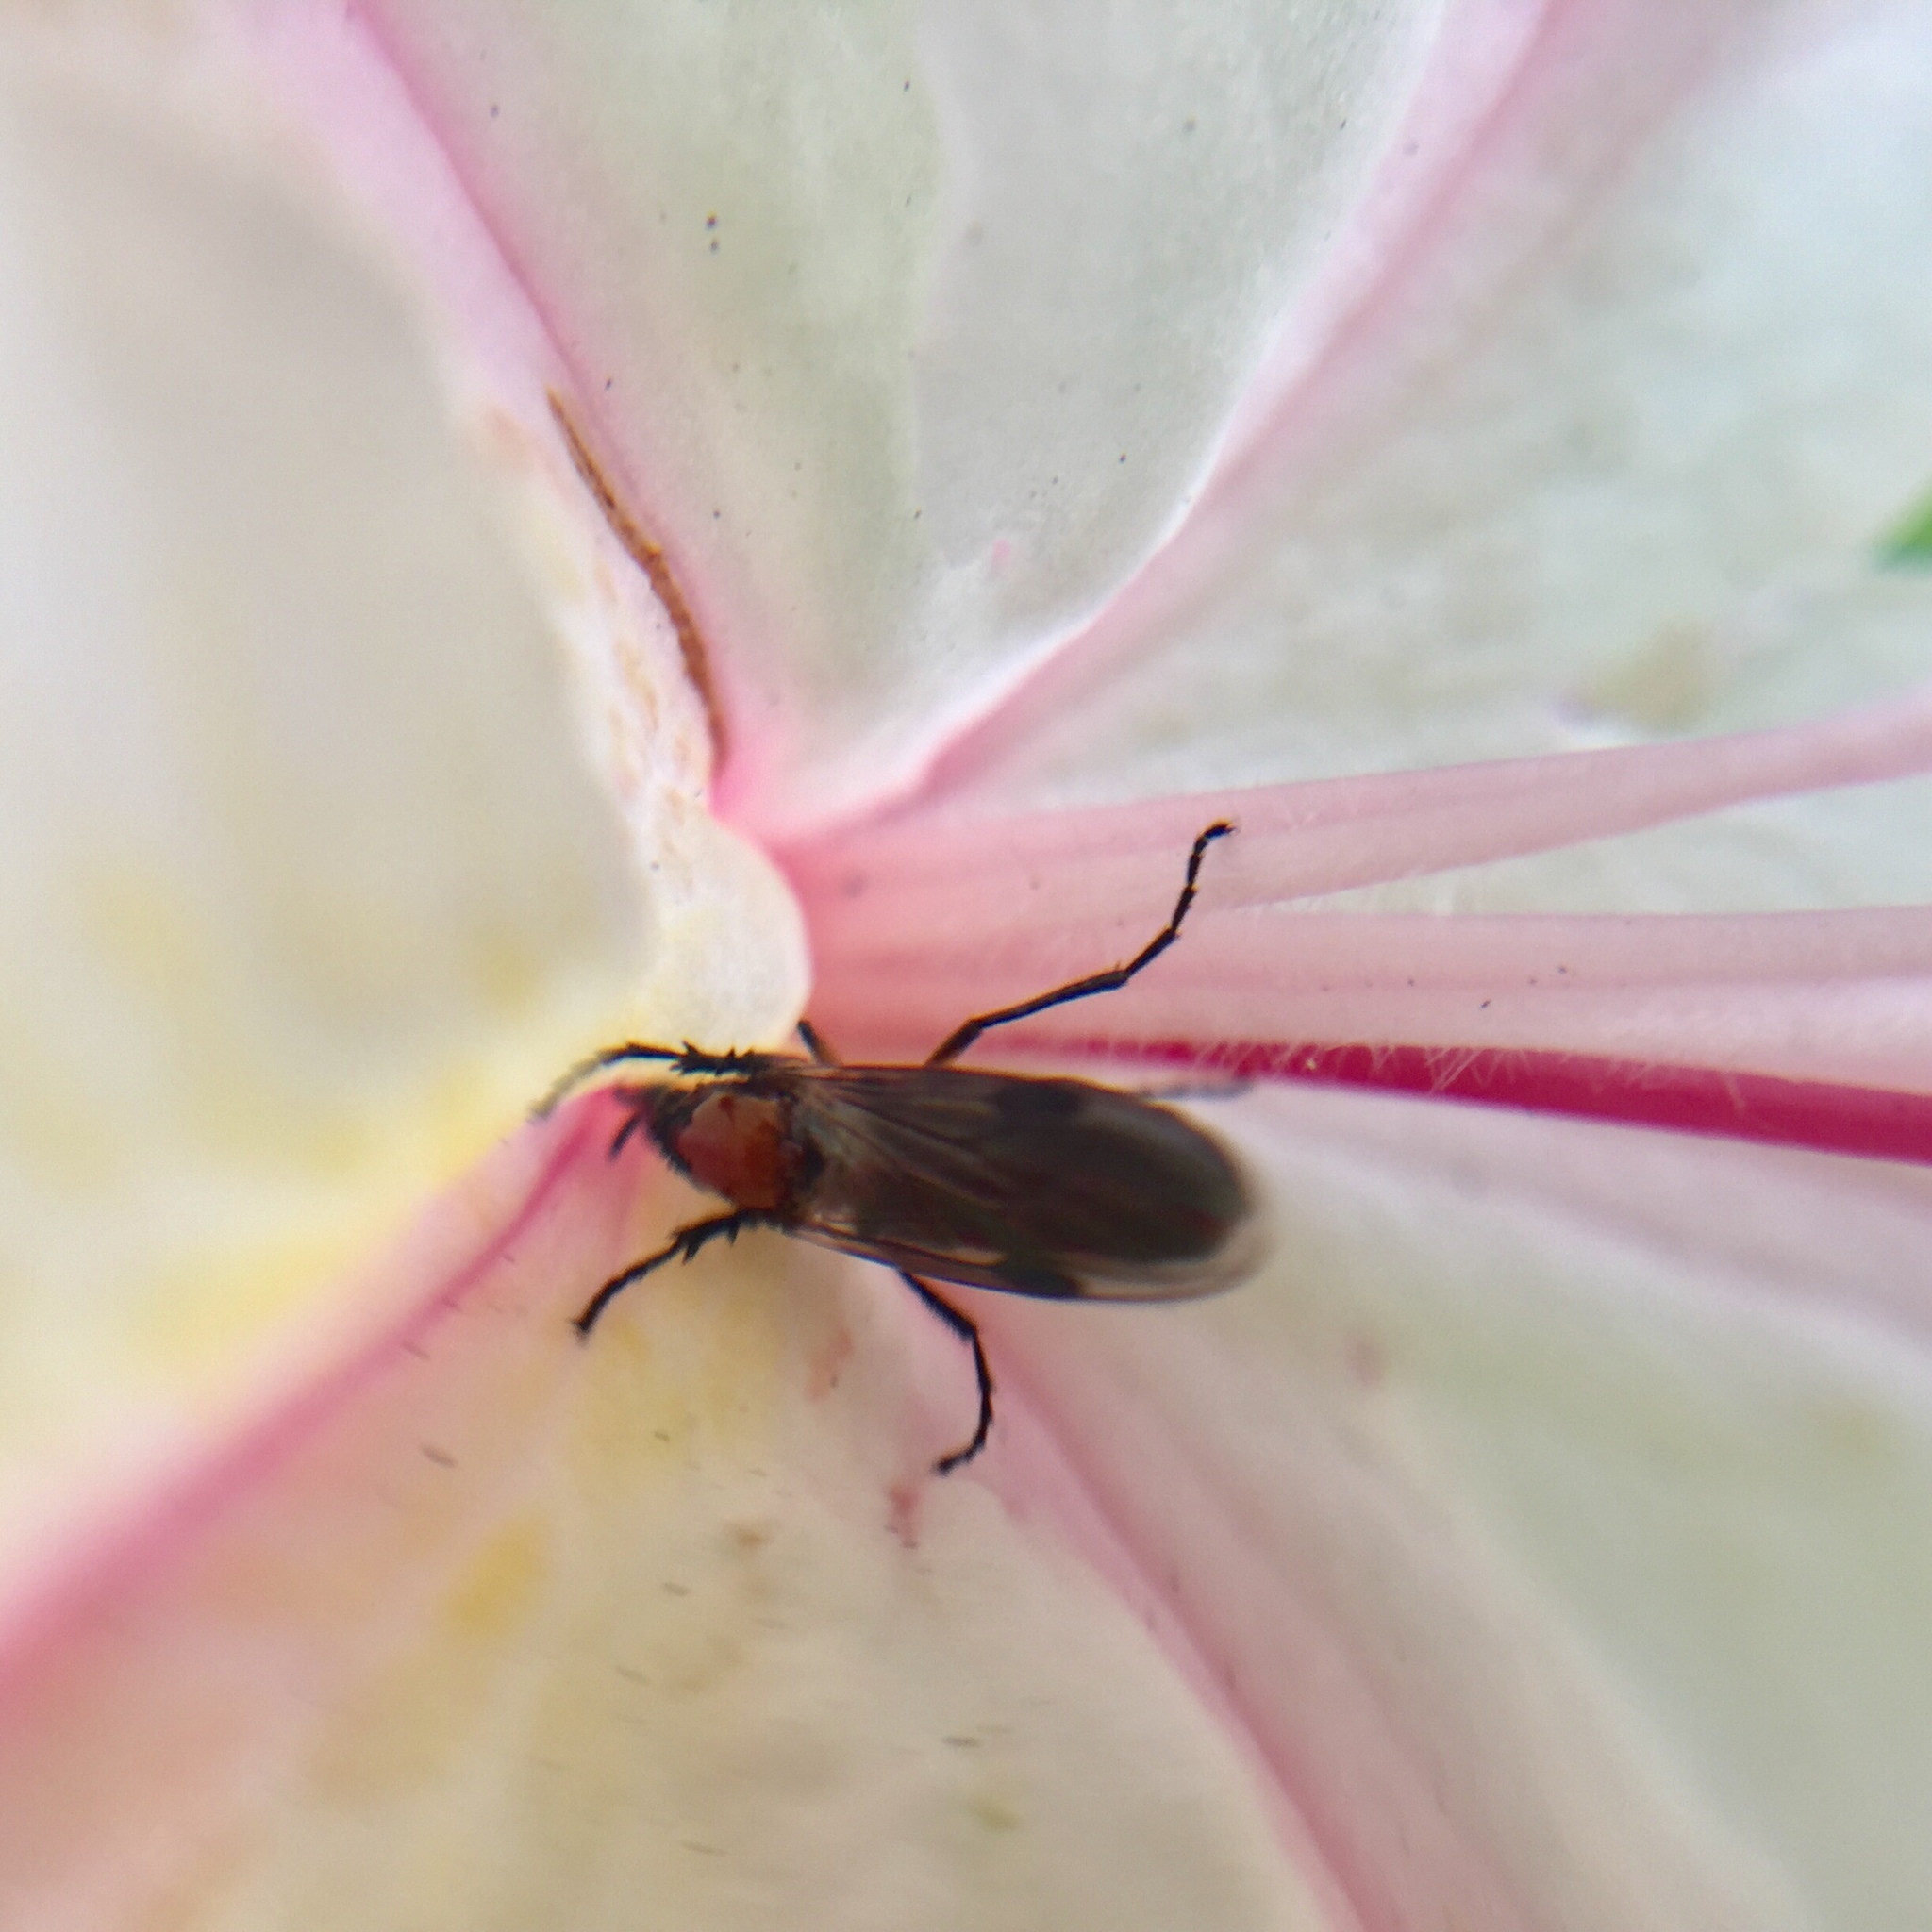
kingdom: Animalia
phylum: Arthropoda
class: Insecta
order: Diptera
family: Bibionidae
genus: Dilophus
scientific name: Dilophus strigilatus
